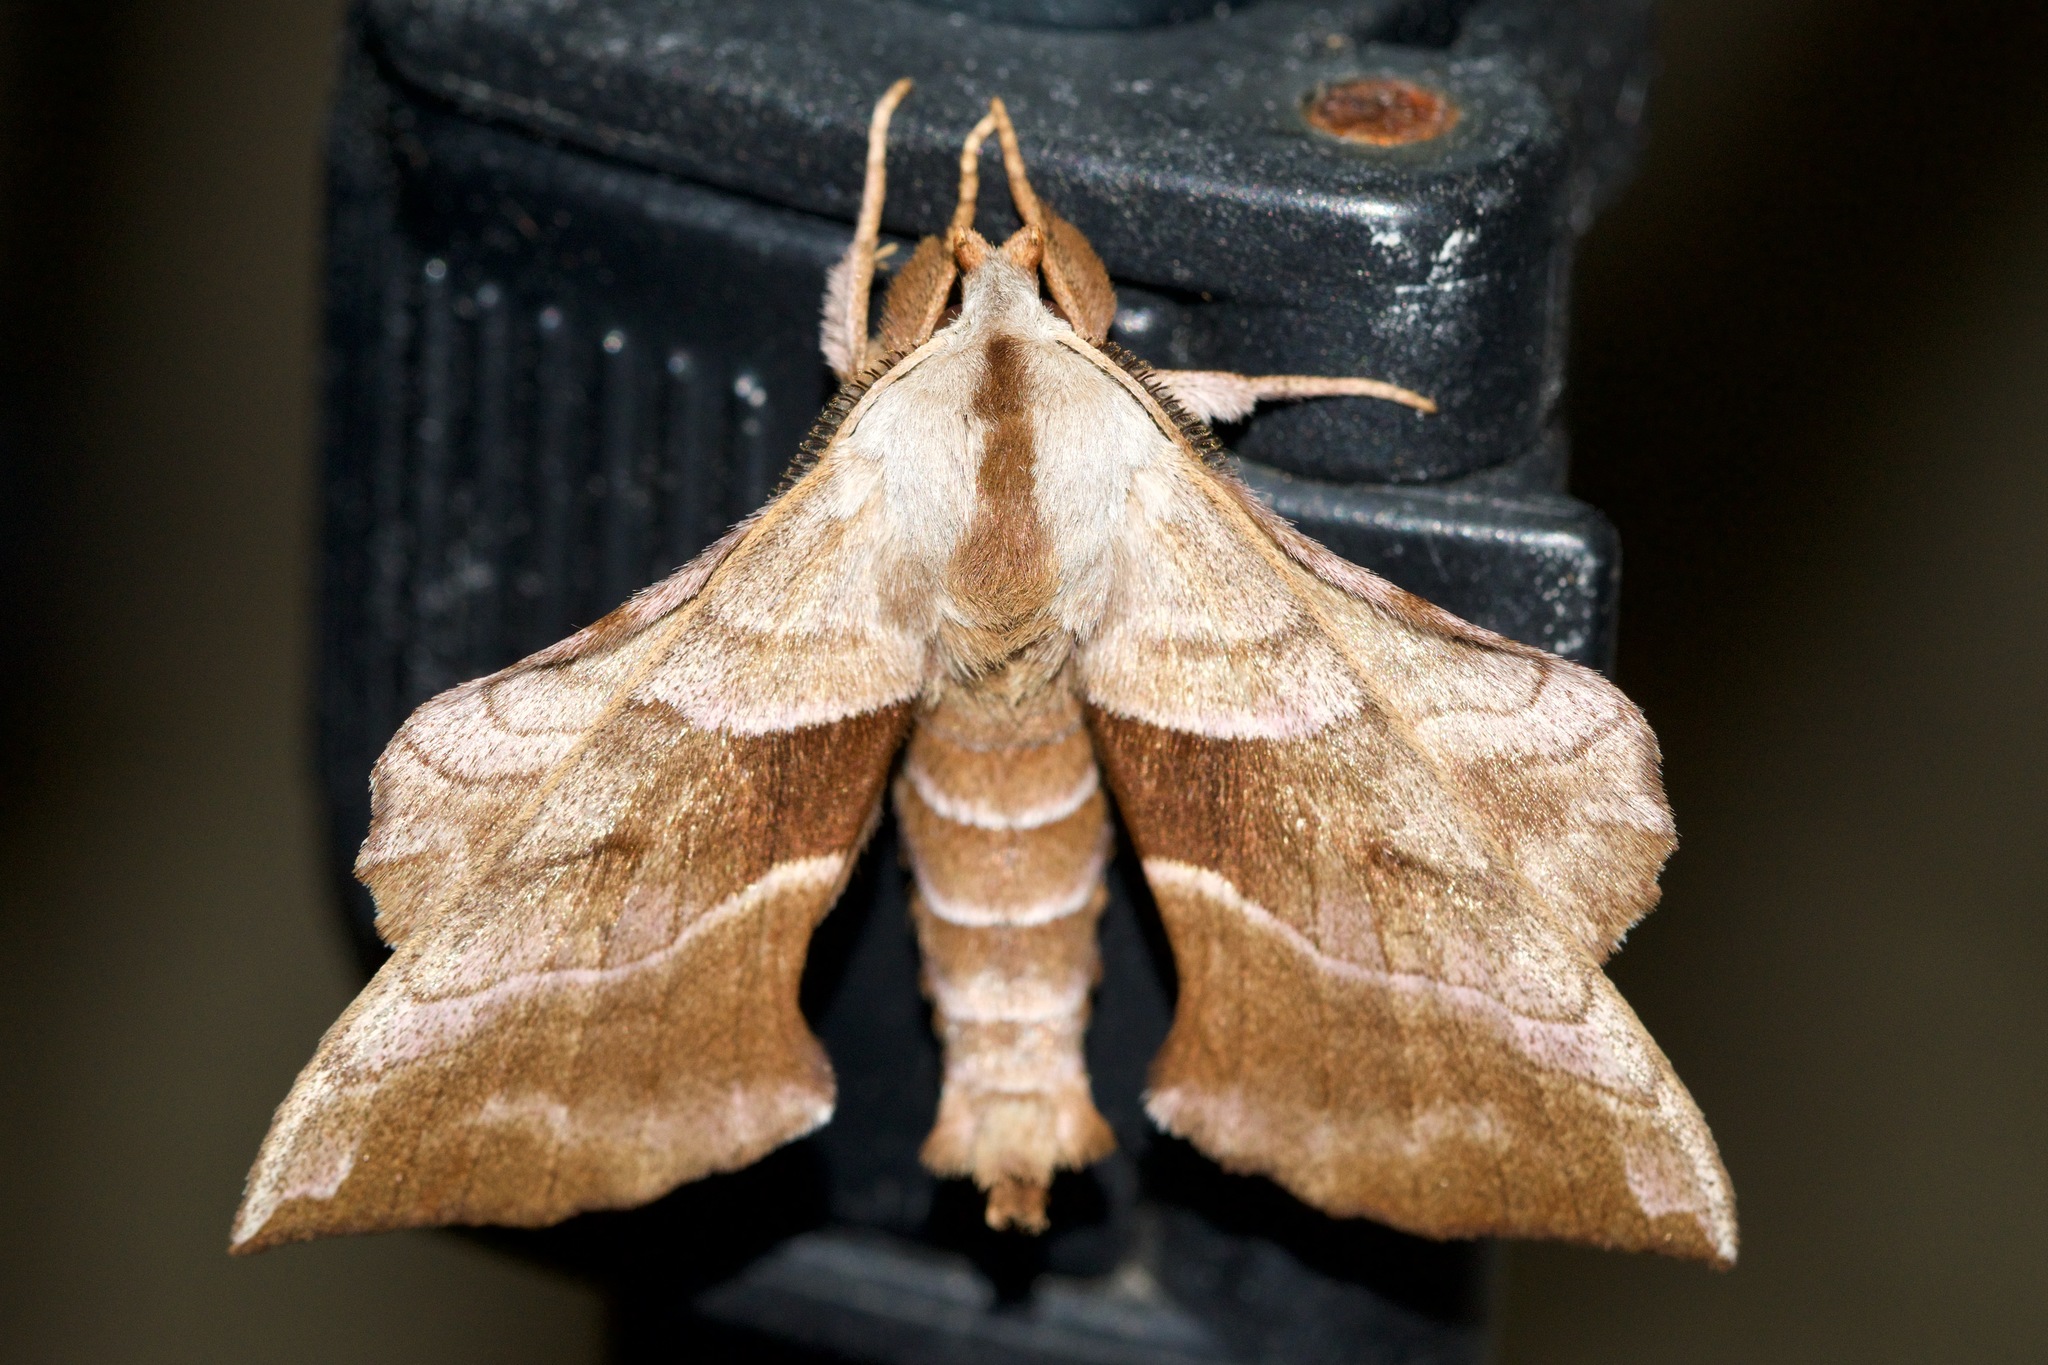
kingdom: Animalia
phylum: Arthropoda
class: Insecta
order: Lepidoptera
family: Sphingidae
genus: Amorpha
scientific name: Amorpha juglandis
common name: Walnut sphinx
